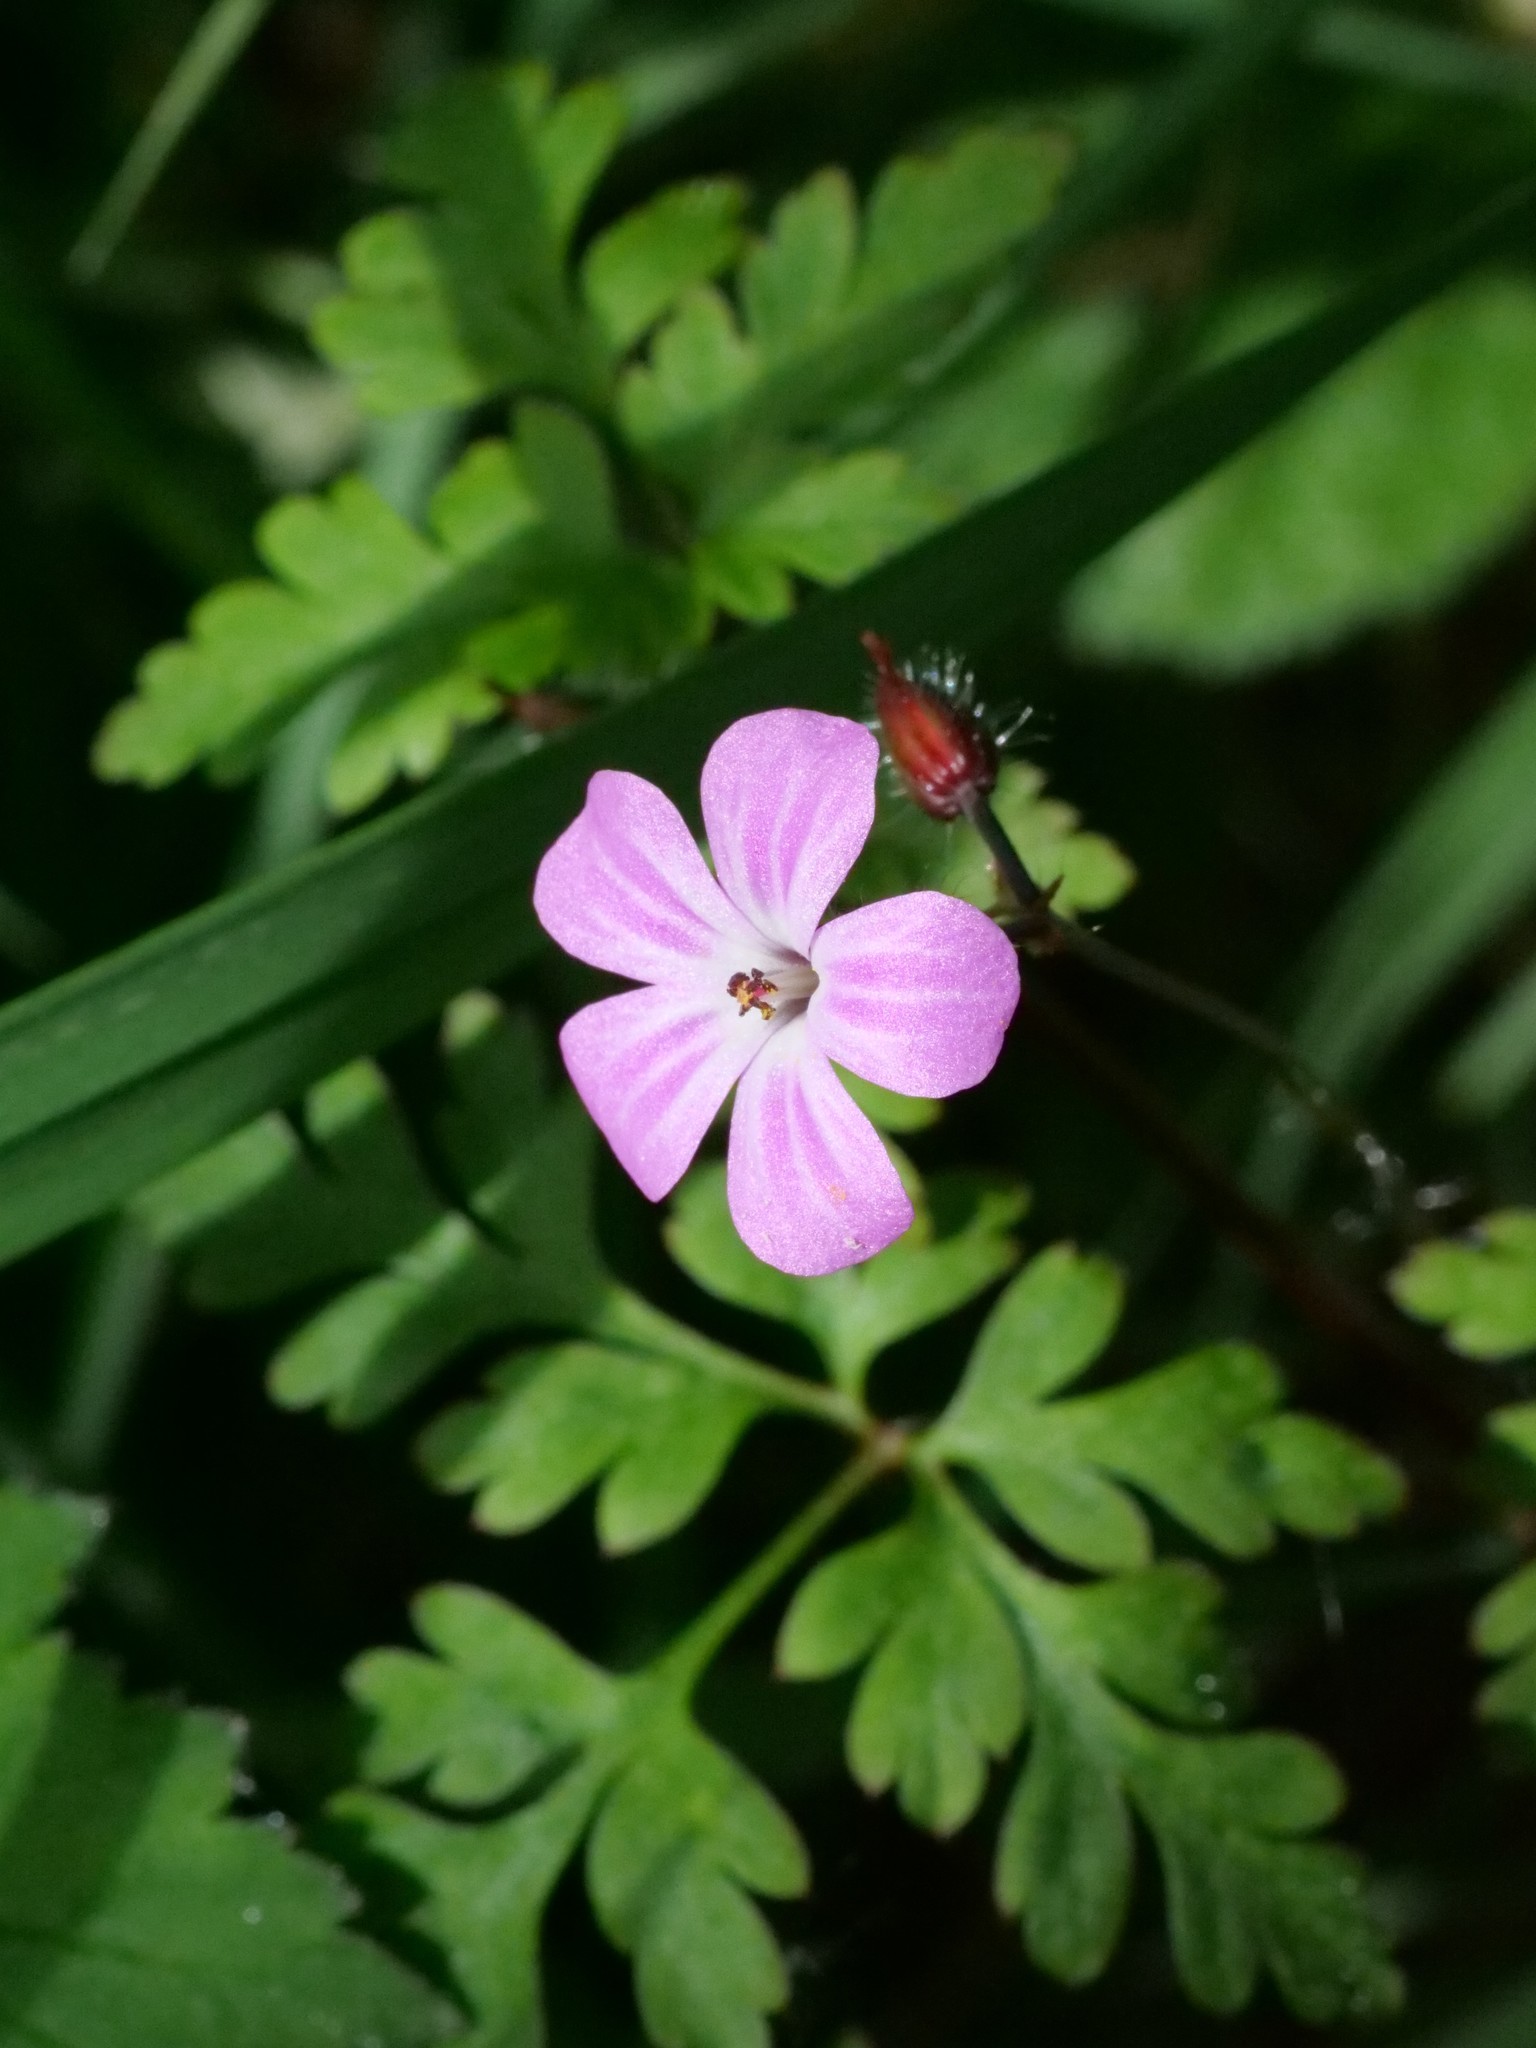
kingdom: Plantae
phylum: Tracheophyta
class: Magnoliopsida
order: Geraniales
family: Geraniaceae
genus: Geranium
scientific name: Geranium robertianum
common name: Herb-robert
